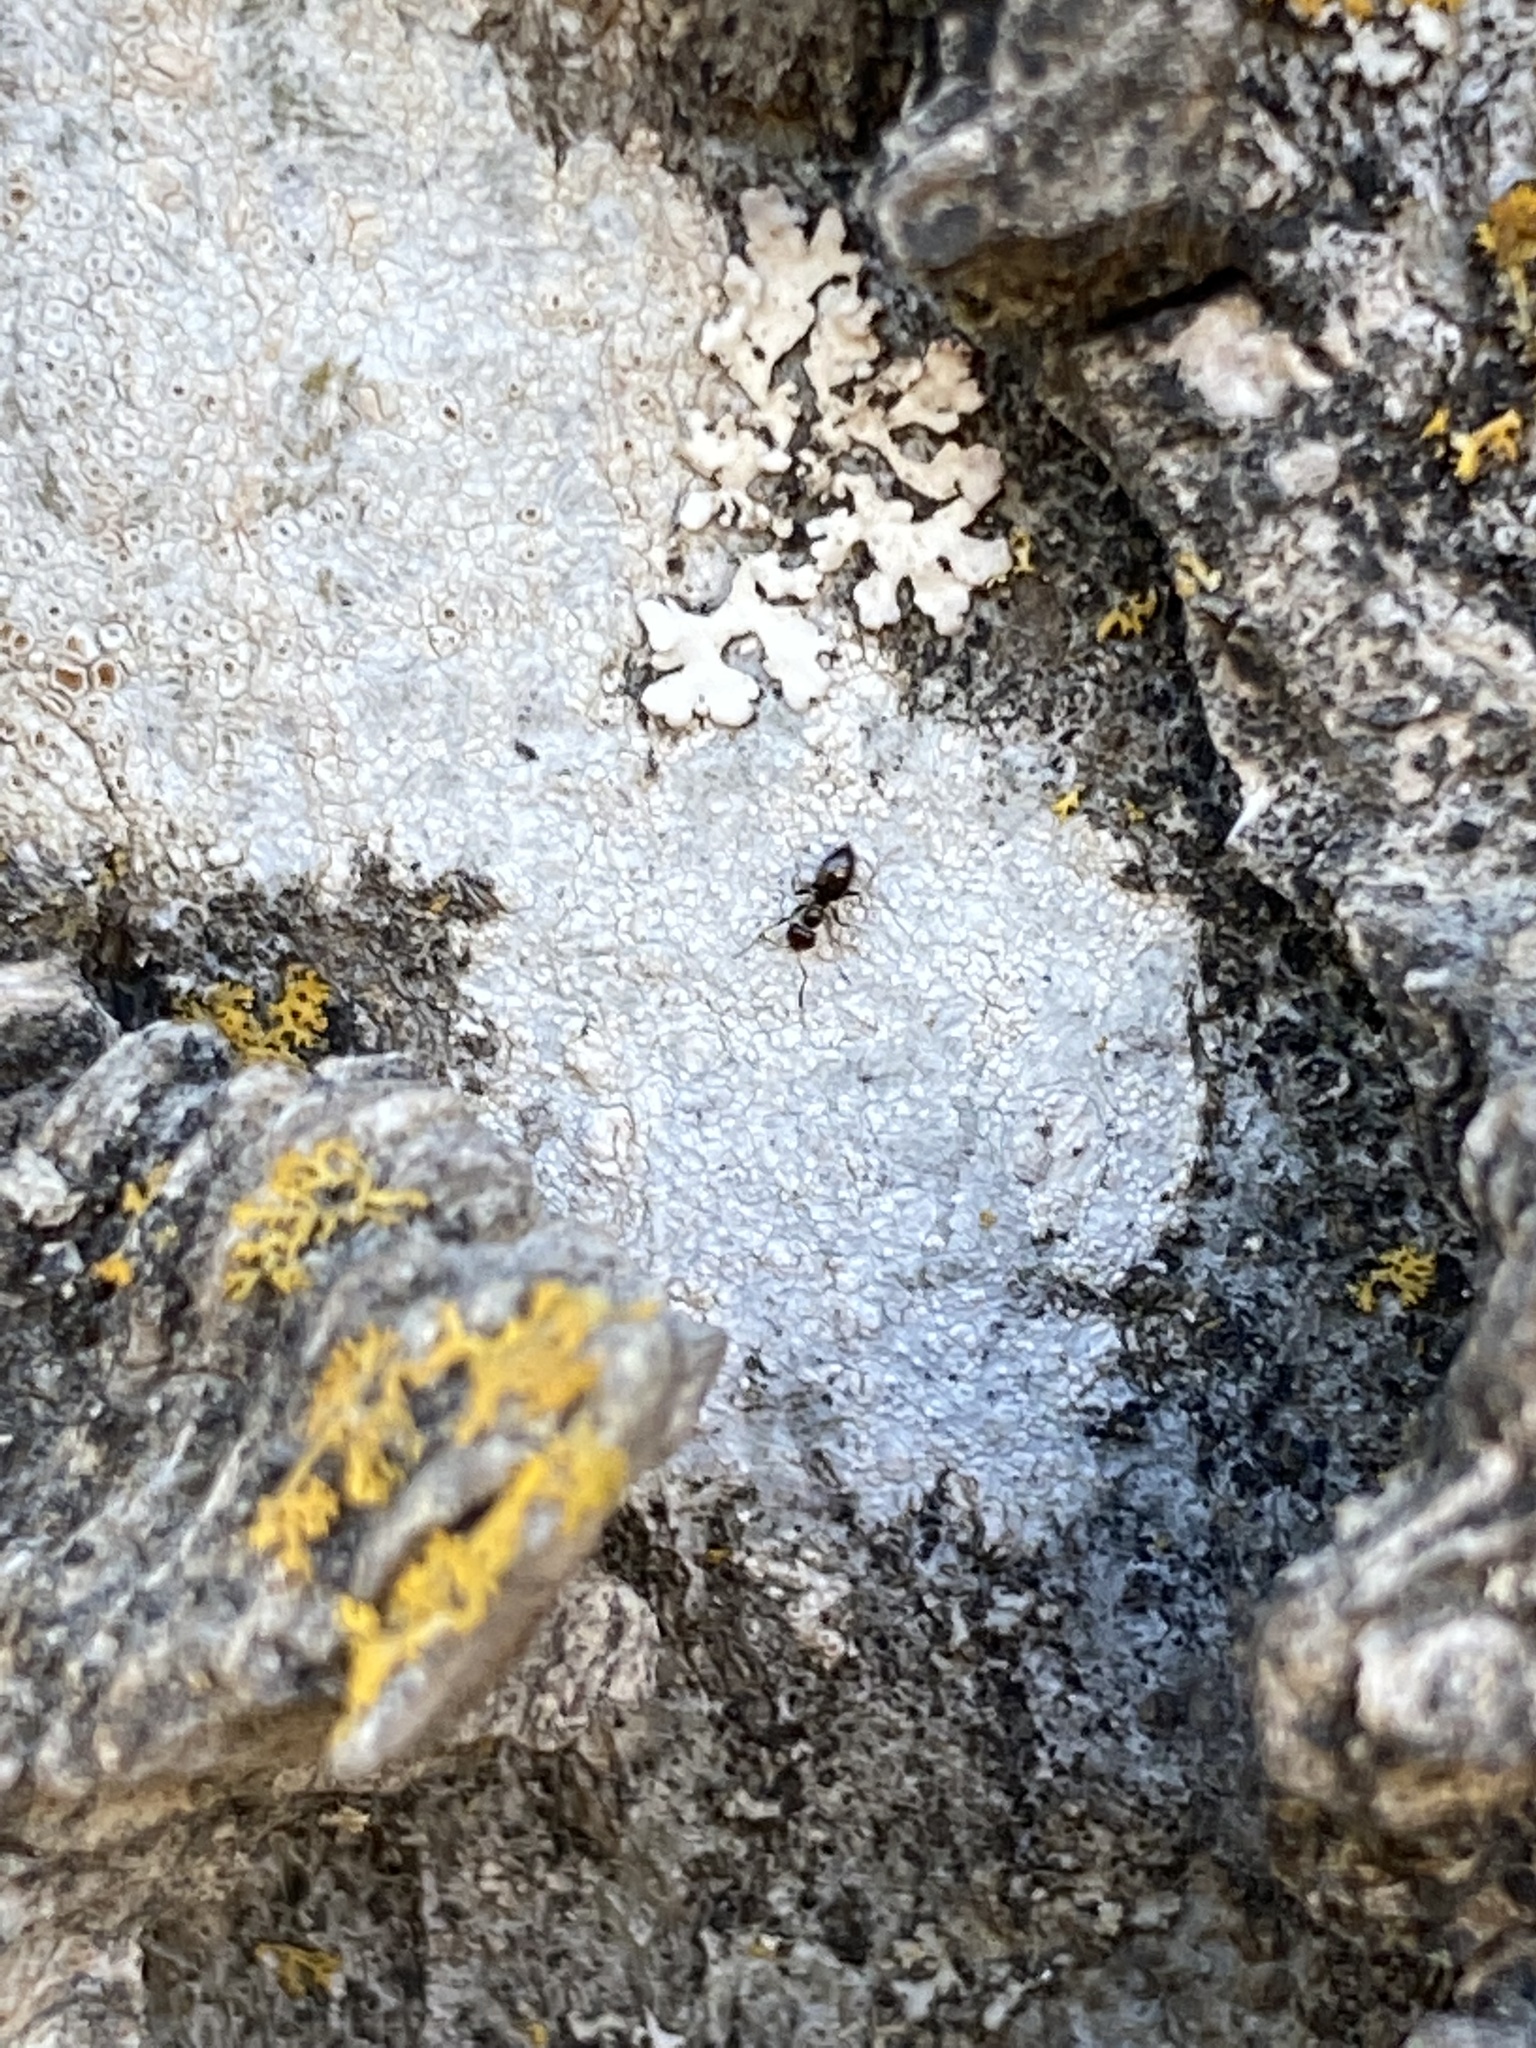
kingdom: Animalia
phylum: Arthropoda
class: Insecta
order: Hymenoptera
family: Formicidae
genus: Brachymyrmex
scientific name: Brachymyrmex patagonicus
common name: Dark rover ant
